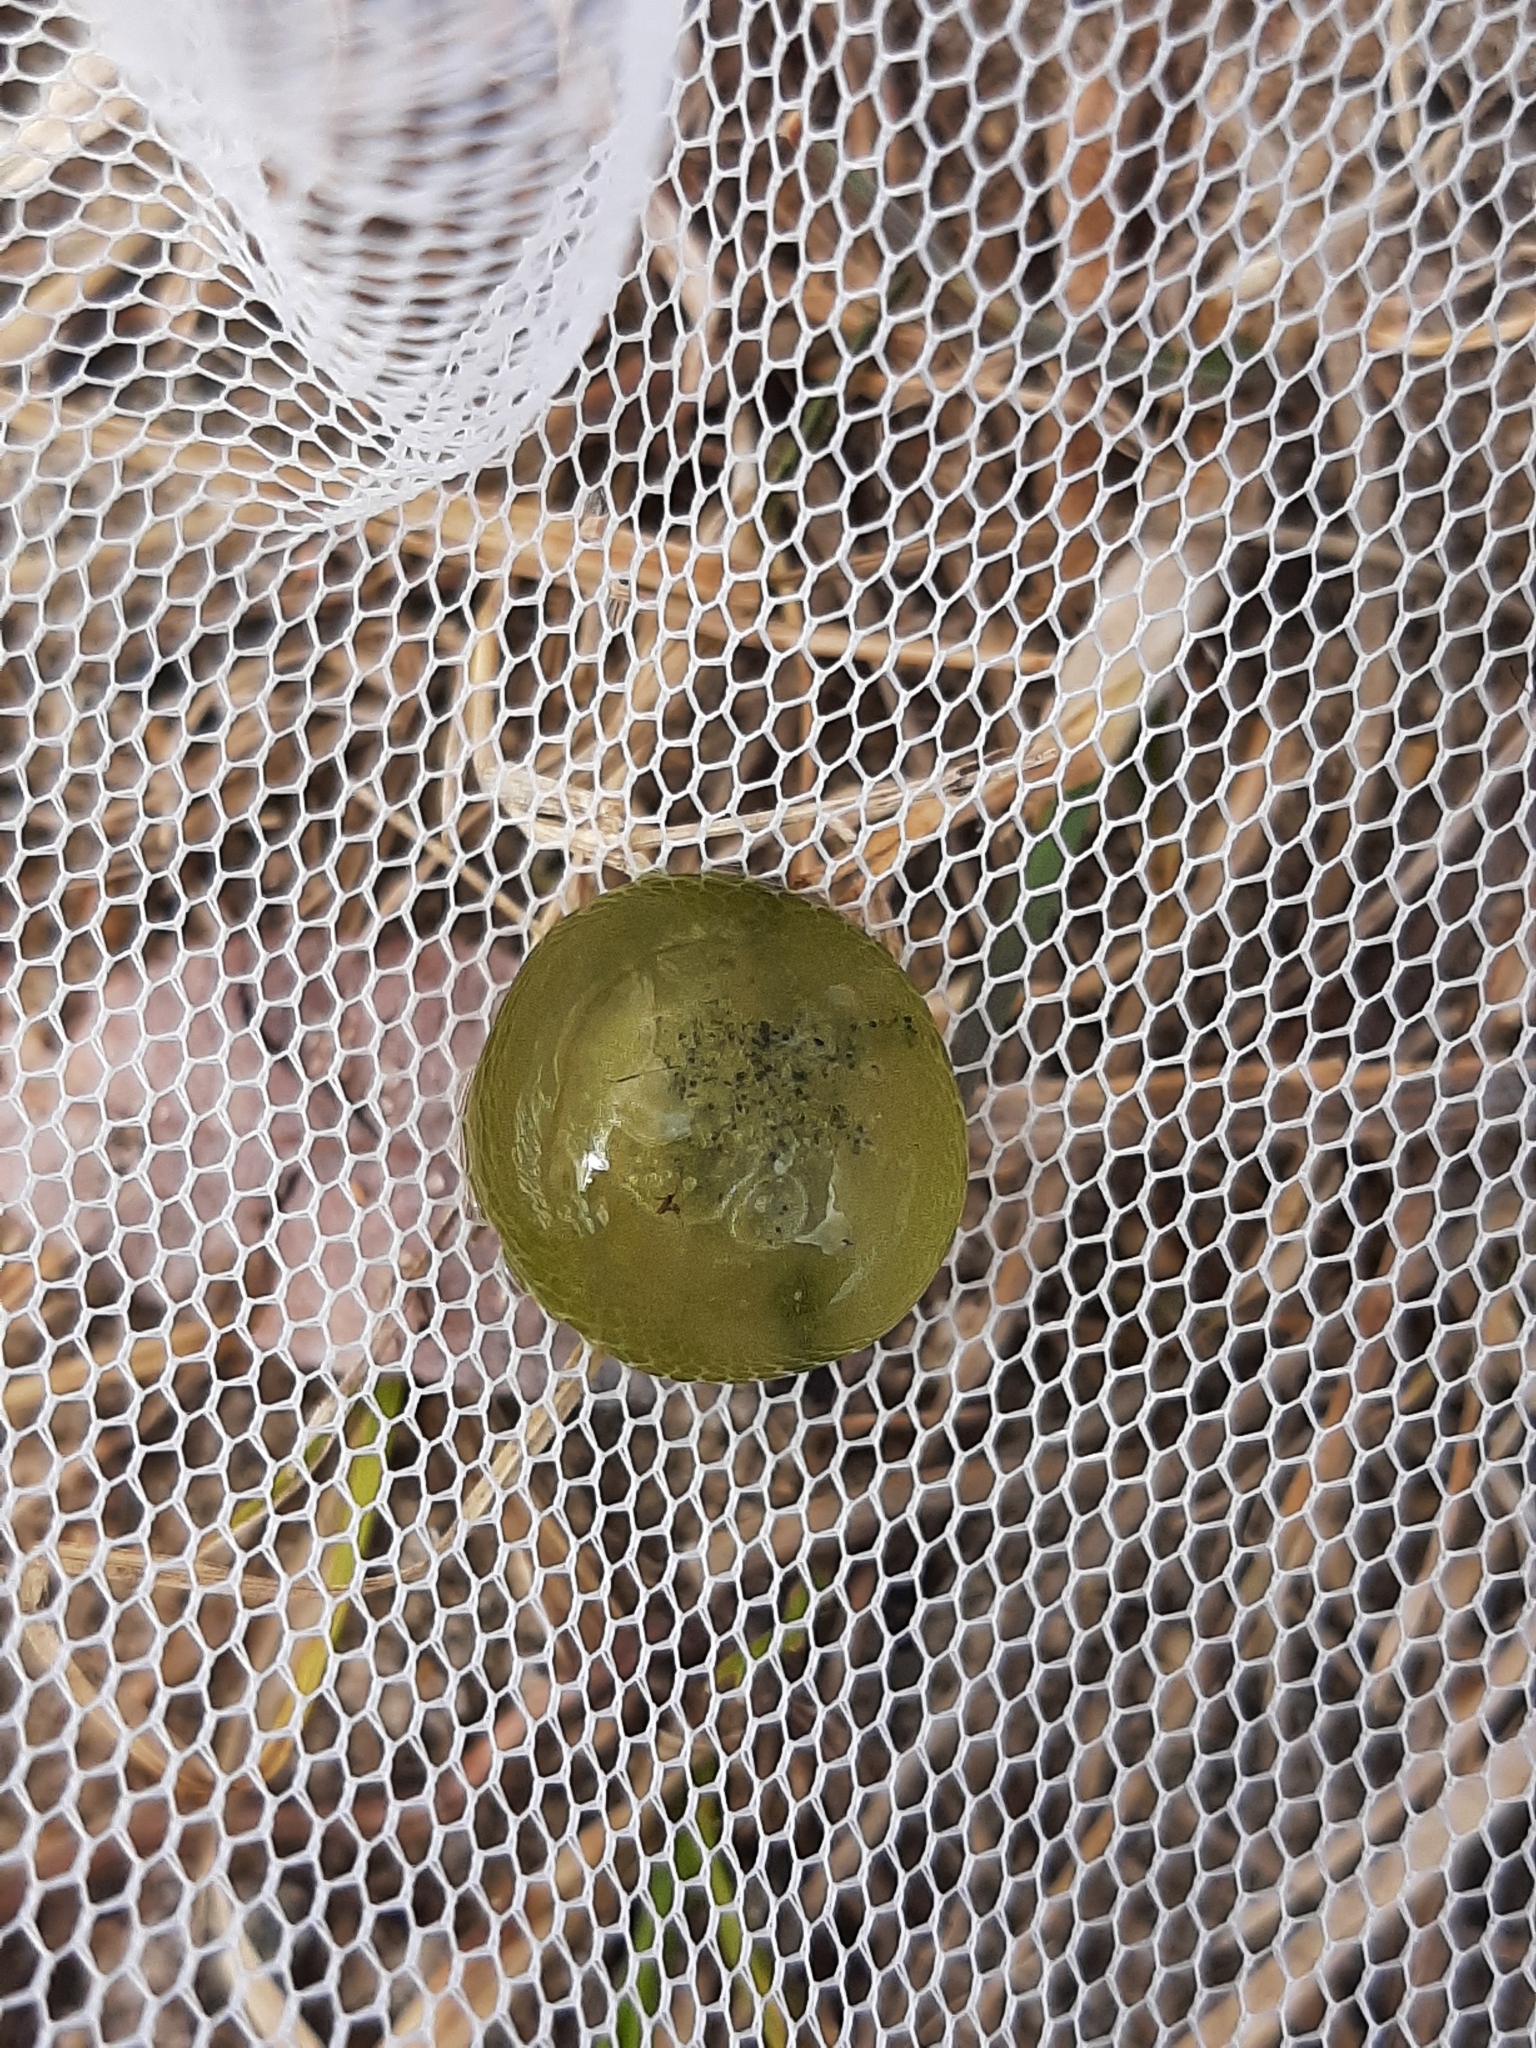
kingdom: Chromista
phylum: Ciliophora
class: Oligohymenophorea
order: Peritrichida
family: Ophrydiidae
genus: Ophrydium
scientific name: Ophrydium
